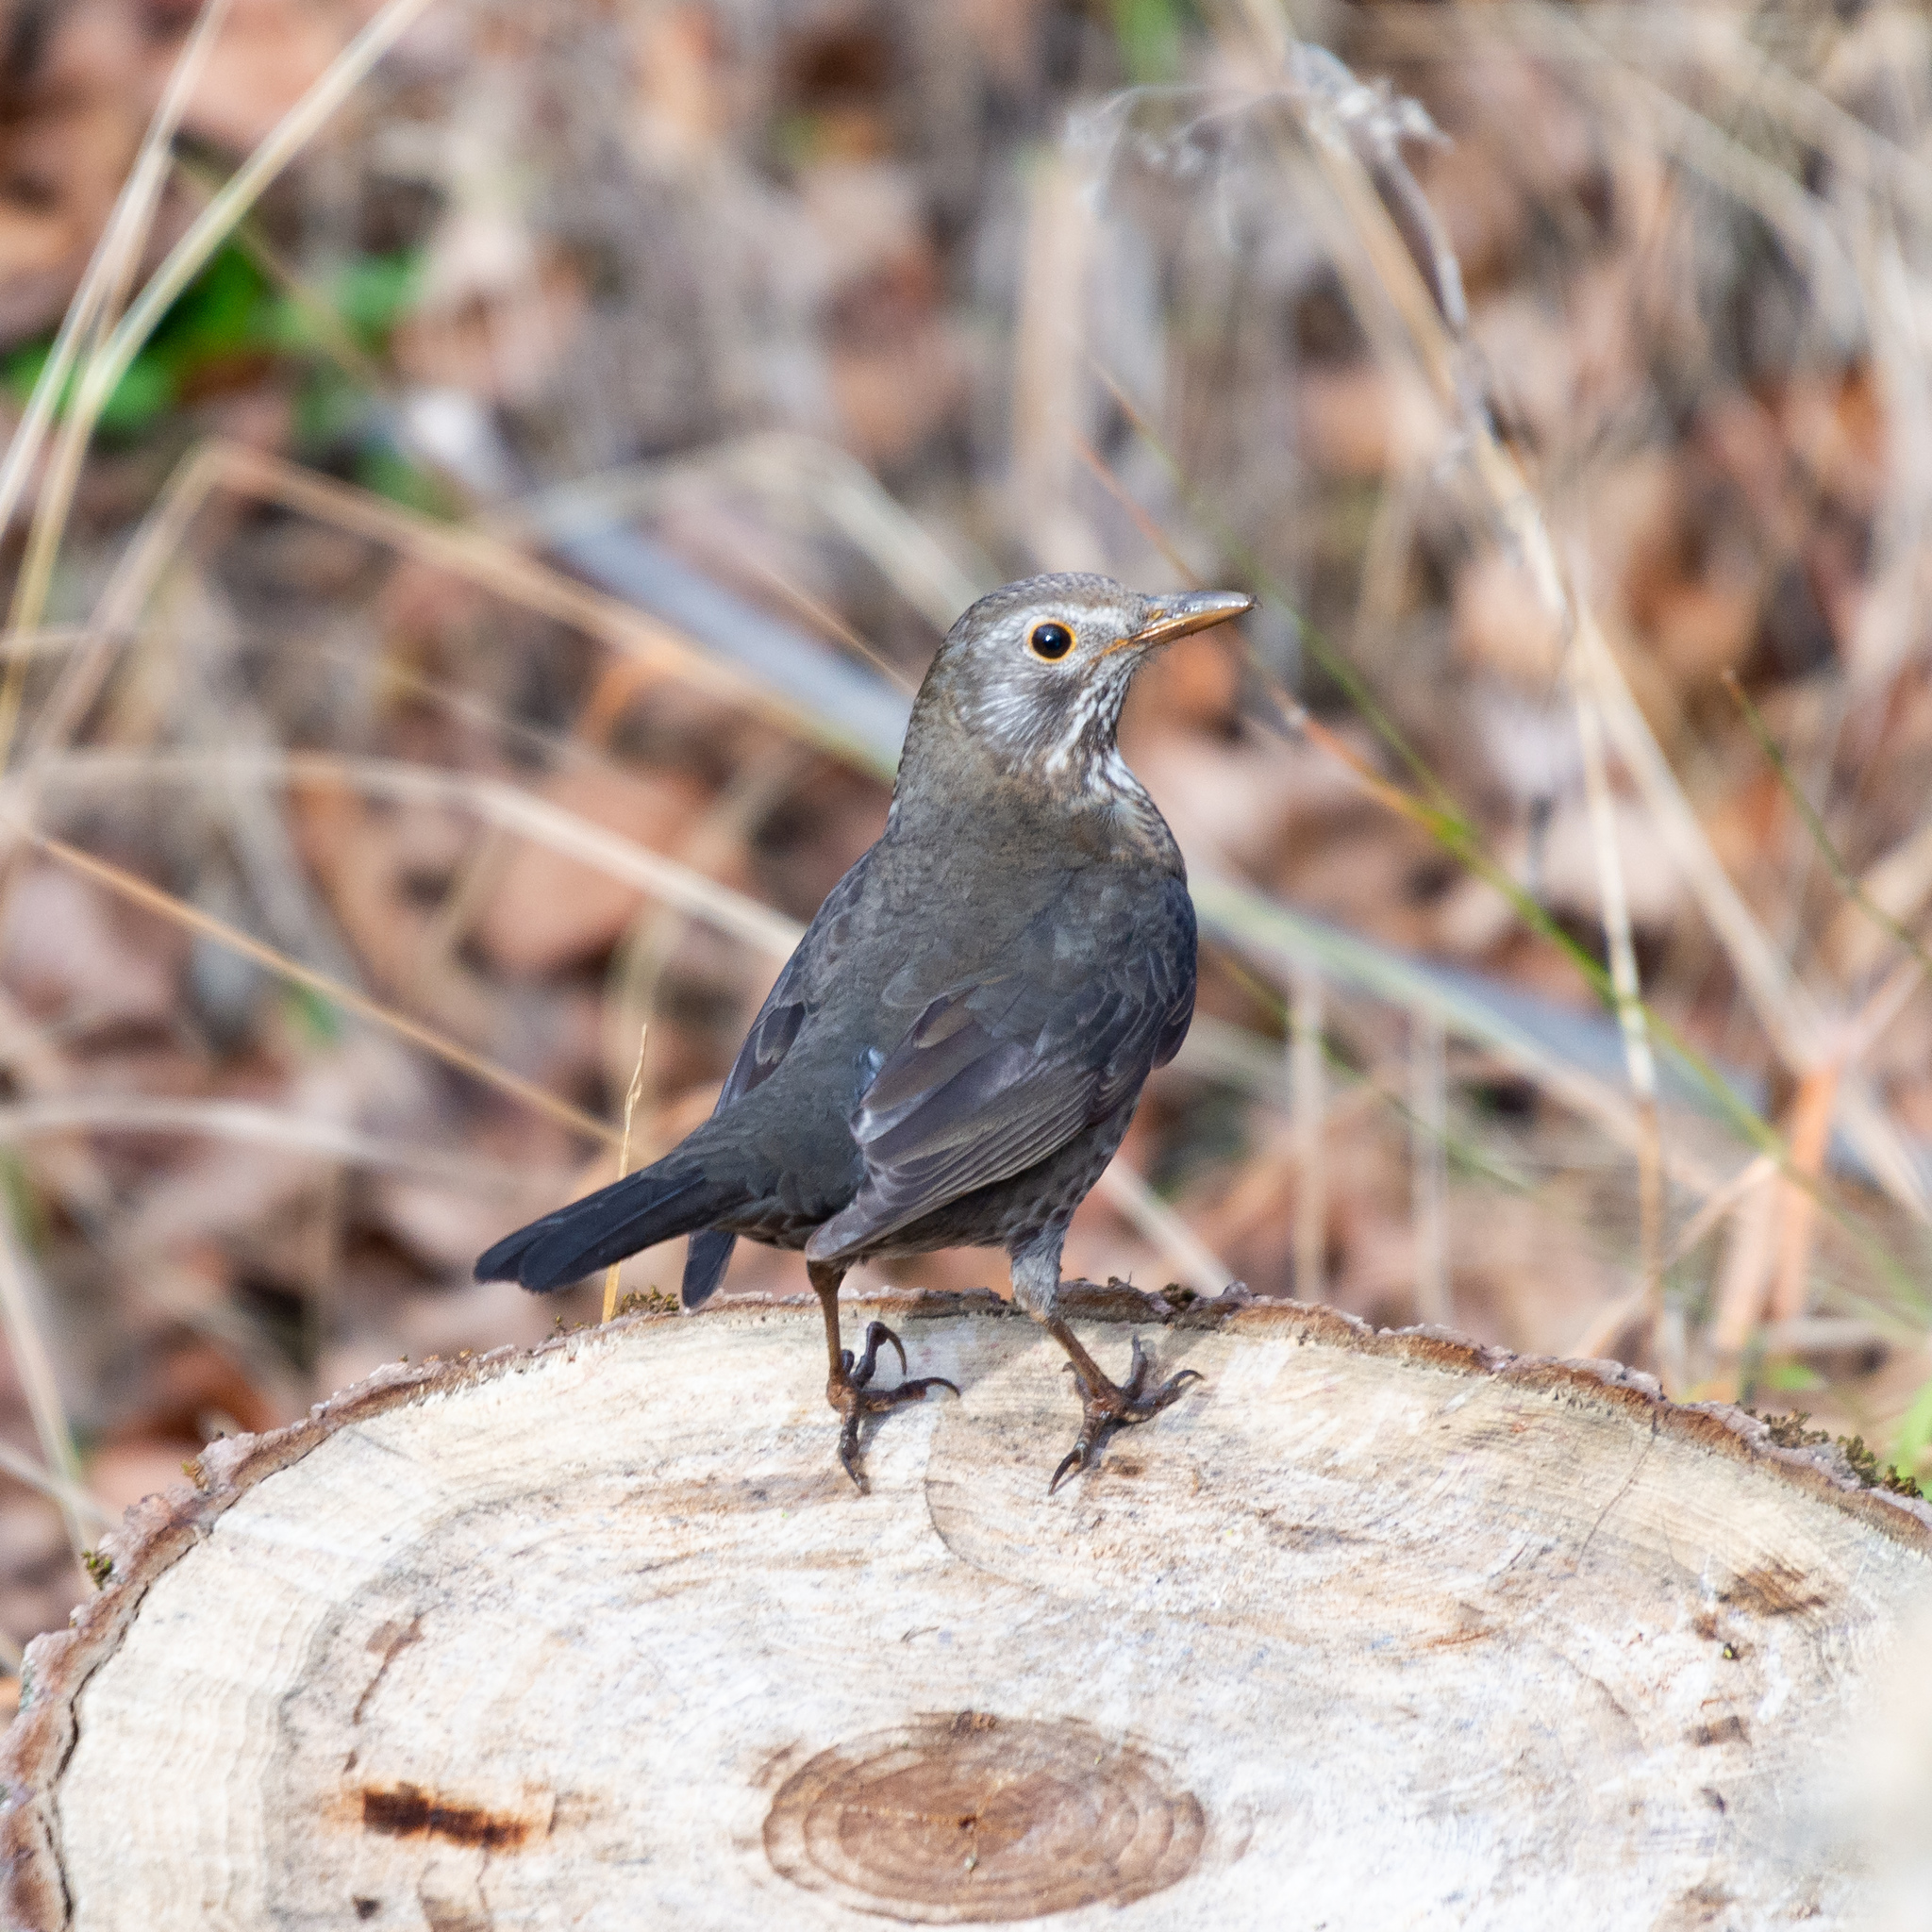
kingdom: Animalia
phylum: Chordata
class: Aves
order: Passeriformes
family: Turdidae
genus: Turdus
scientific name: Turdus merula
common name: Common blackbird
